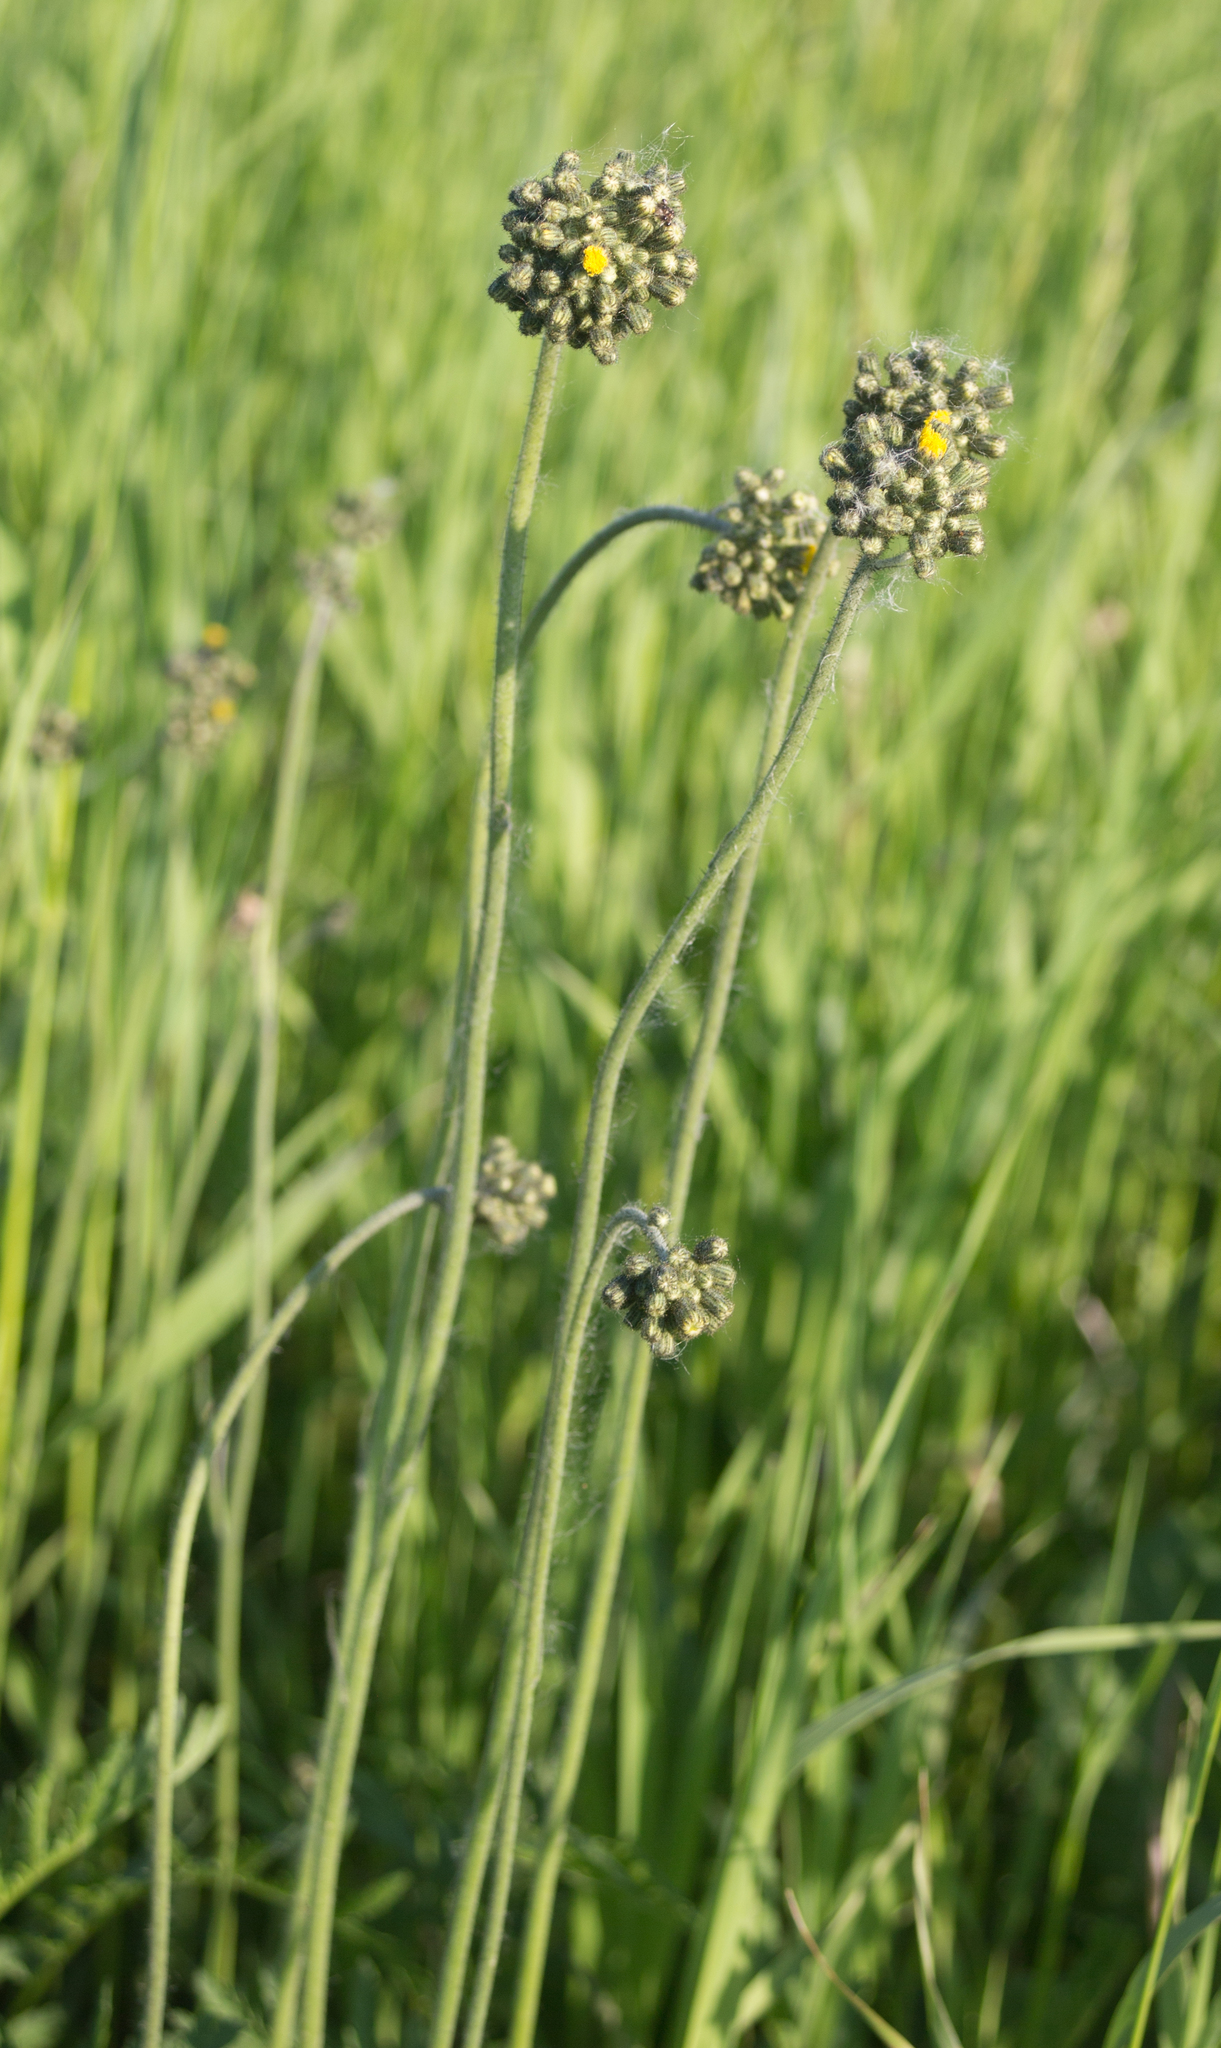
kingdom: Plantae
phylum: Tracheophyta
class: Magnoliopsida
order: Asterales
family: Asteraceae
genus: Pilosella
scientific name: Pilosella
